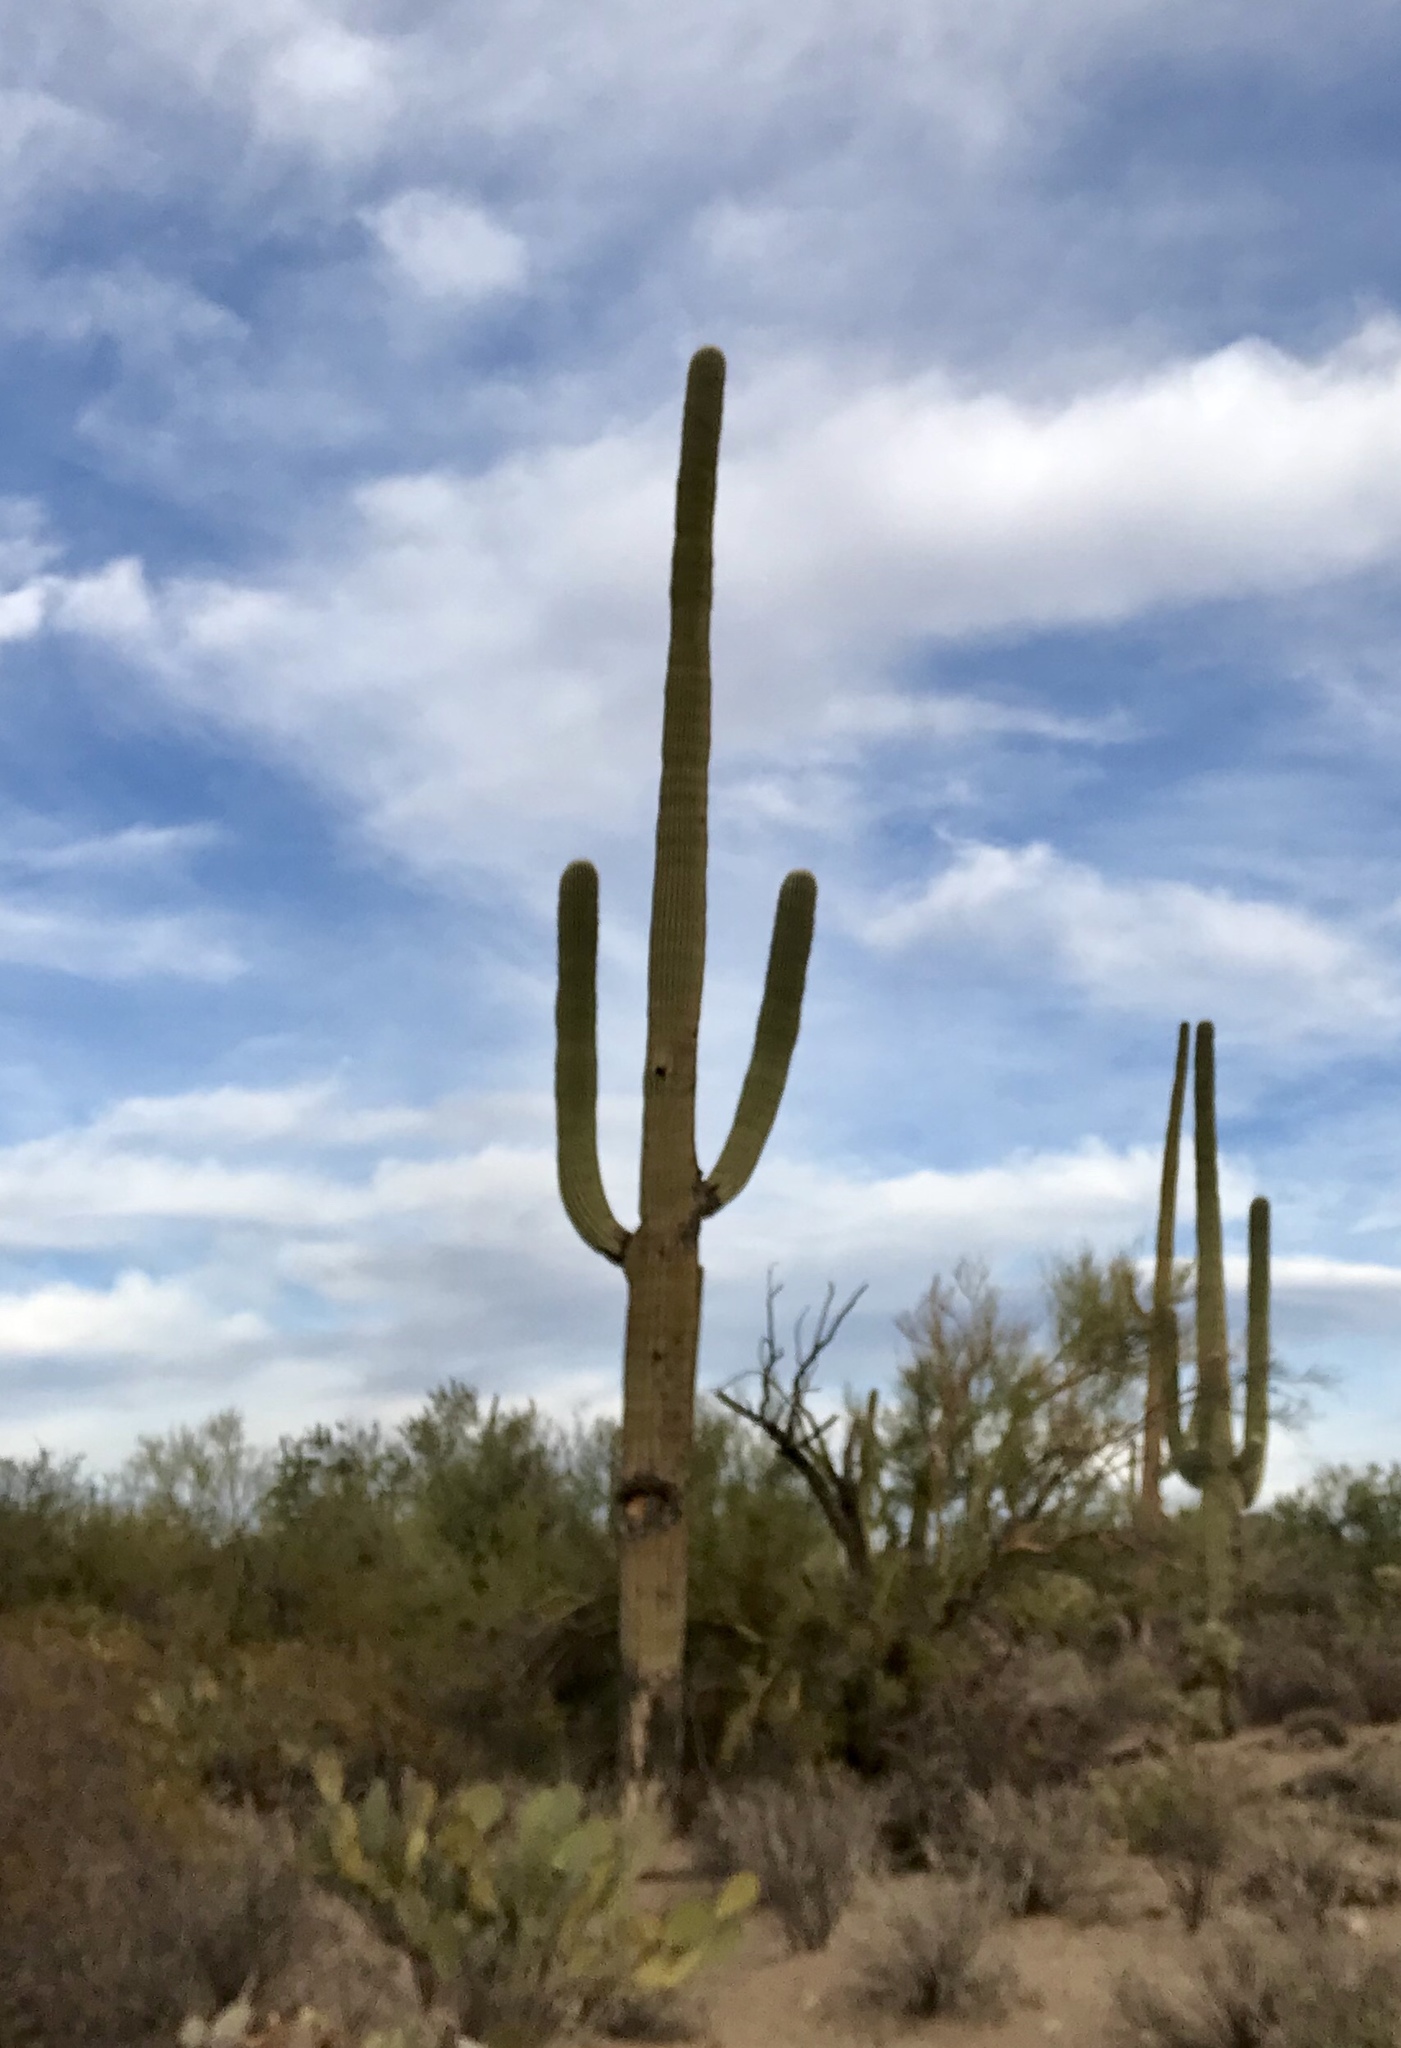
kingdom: Plantae
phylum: Tracheophyta
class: Magnoliopsida
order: Caryophyllales
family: Cactaceae
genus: Carnegiea
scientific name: Carnegiea gigantea
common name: Saguaro
